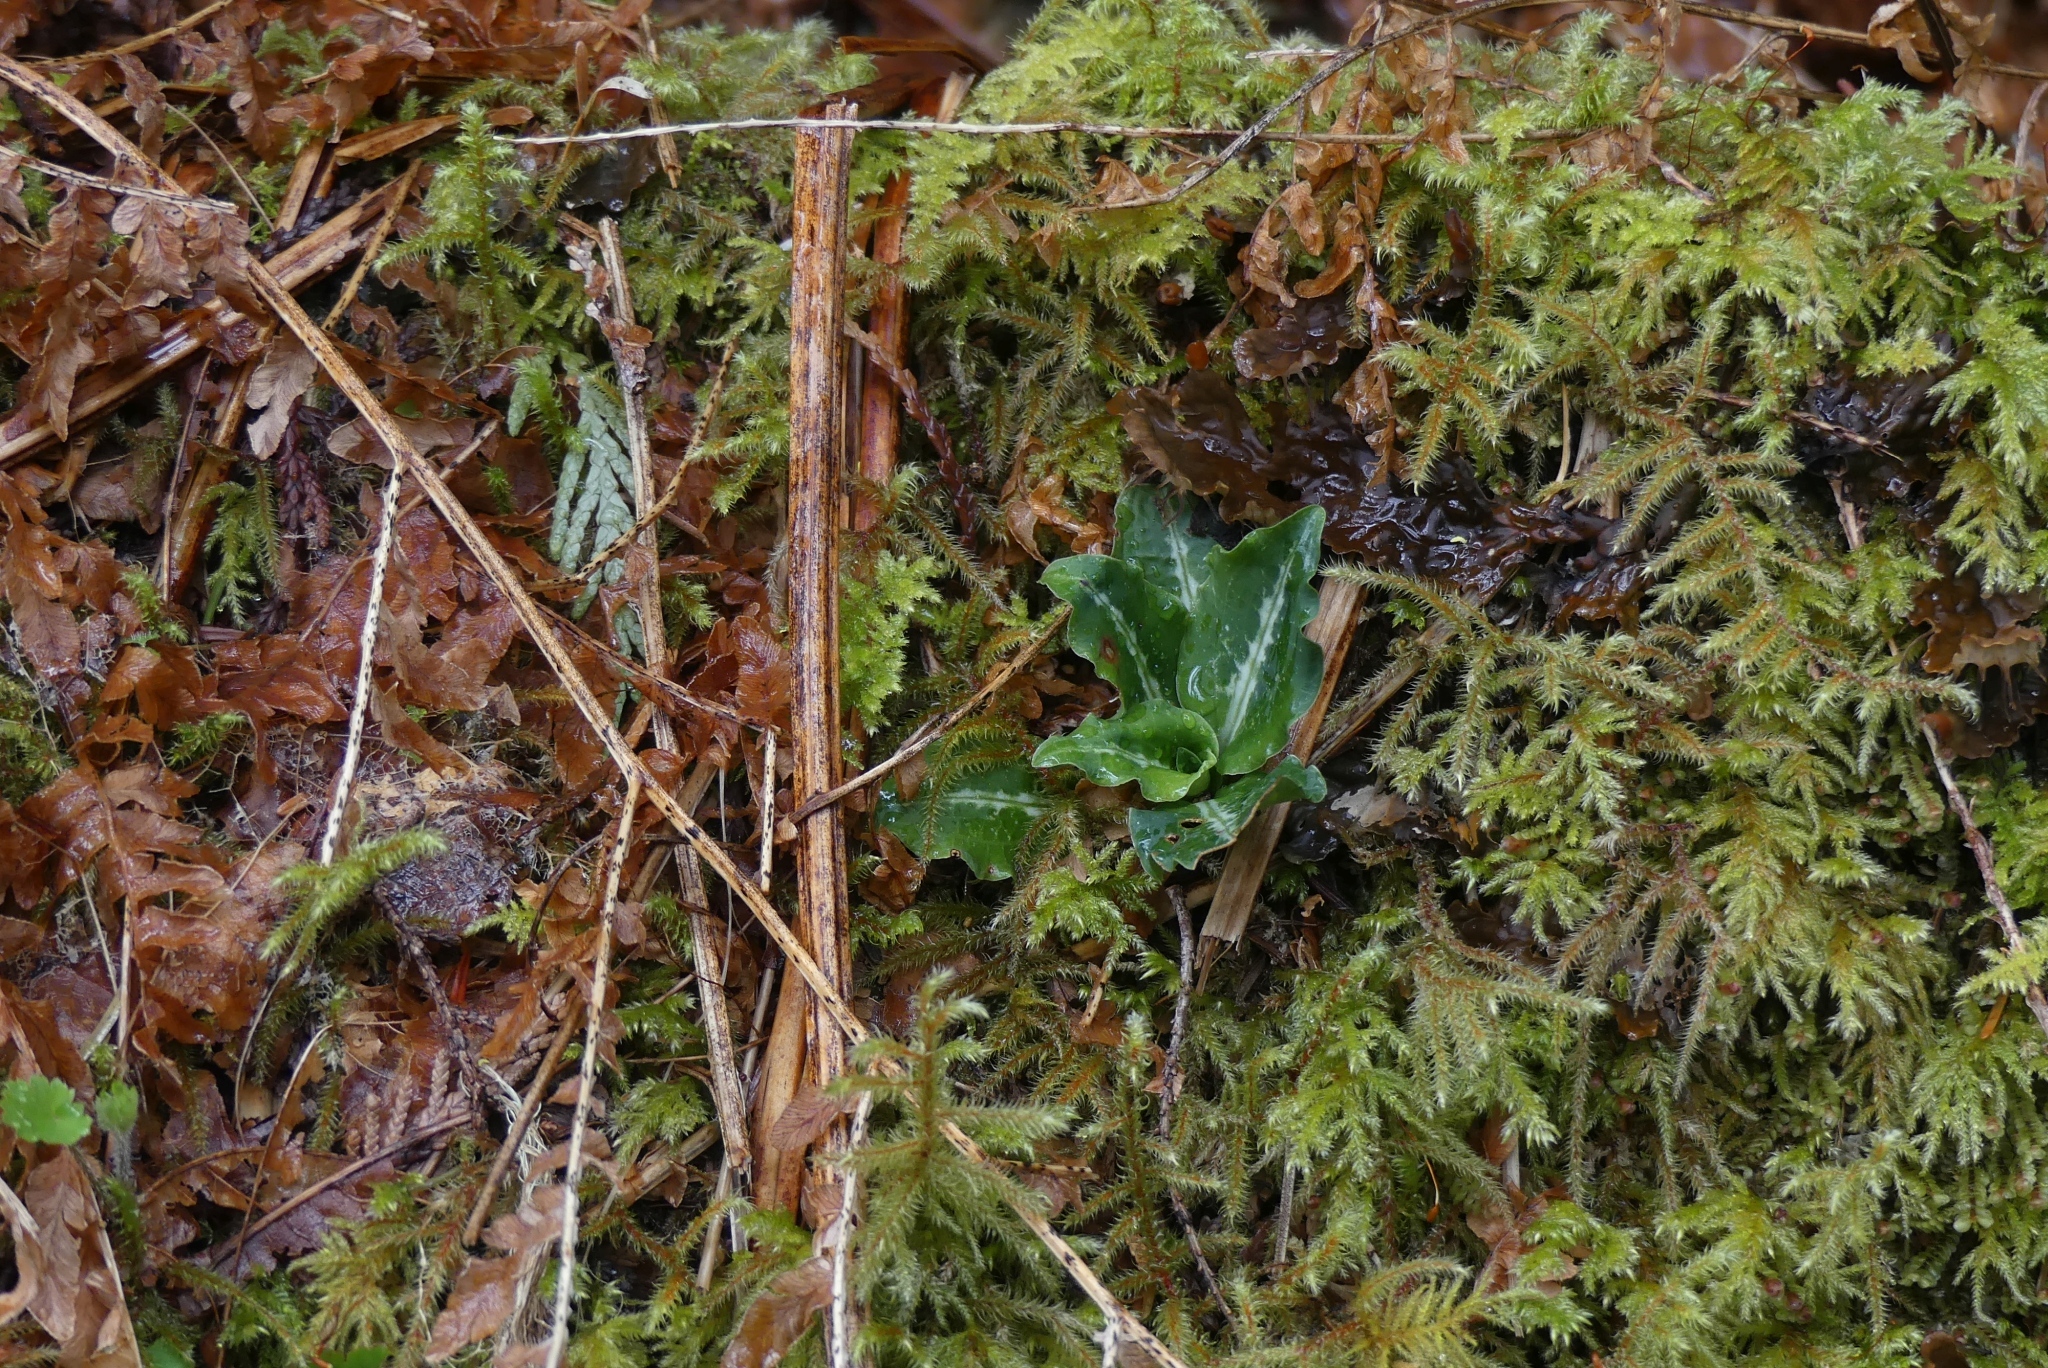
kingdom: Plantae
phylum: Tracheophyta
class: Liliopsida
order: Asparagales
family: Orchidaceae
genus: Goodyera
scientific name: Goodyera oblongifolia
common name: Giant rattlesnake-plantain
